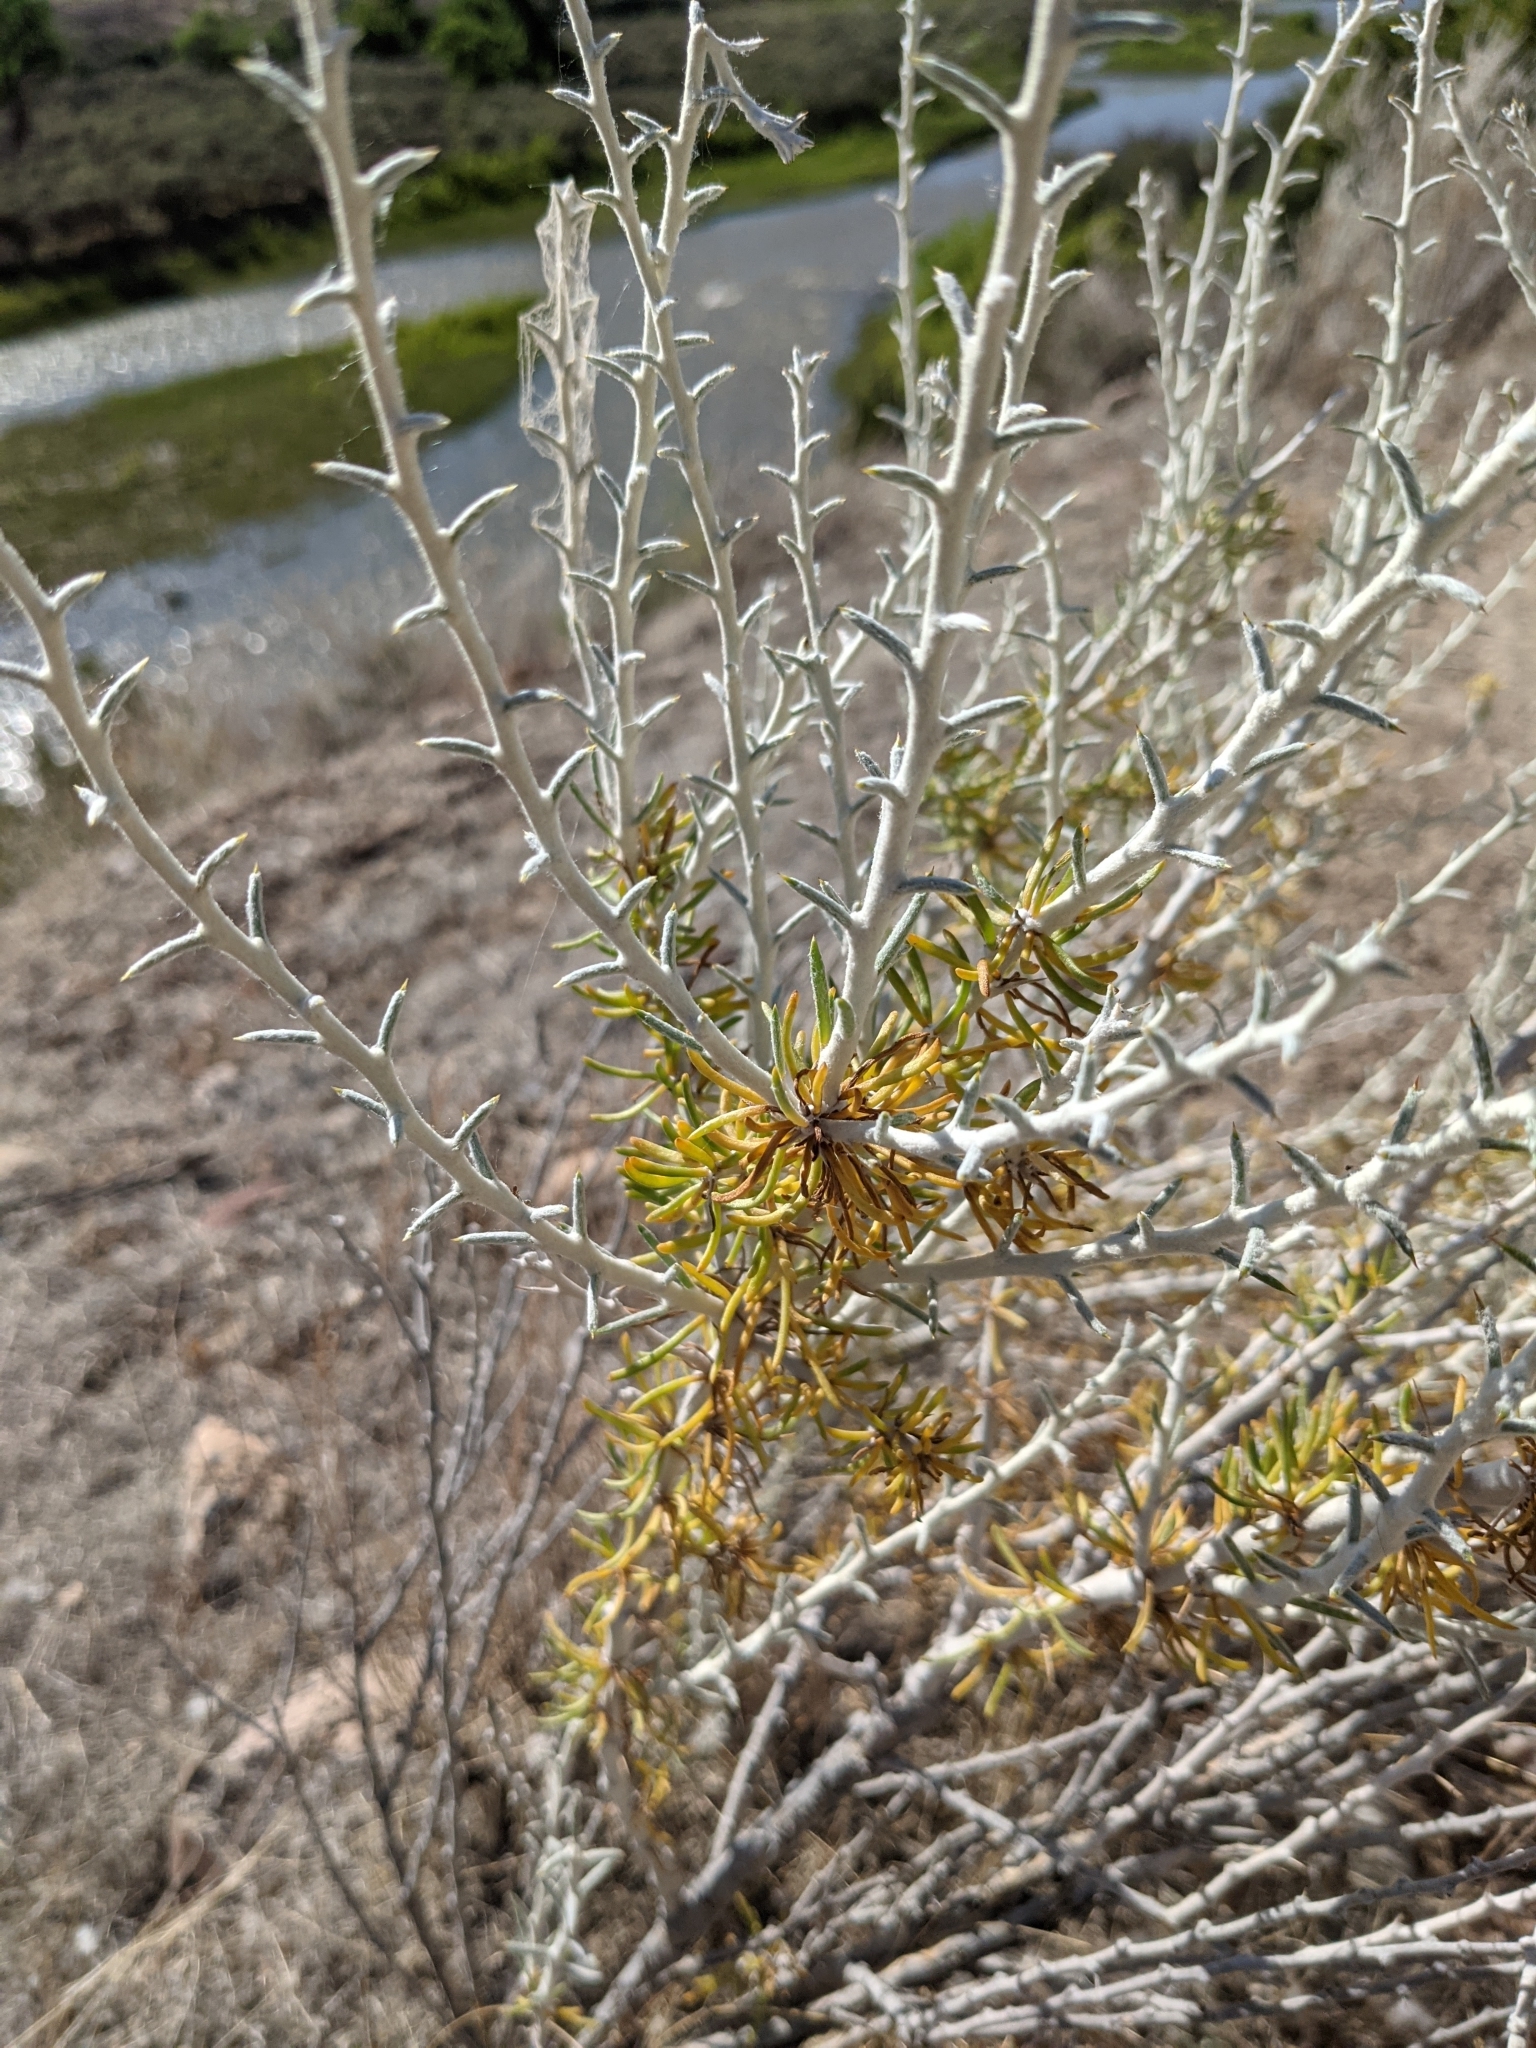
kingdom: Plantae
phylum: Tracheophyta
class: Magnoliopsida
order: Asterales
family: Asteraceae
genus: Tetradymia
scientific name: Tetradymia spinosa
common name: Thorny horsebrush
